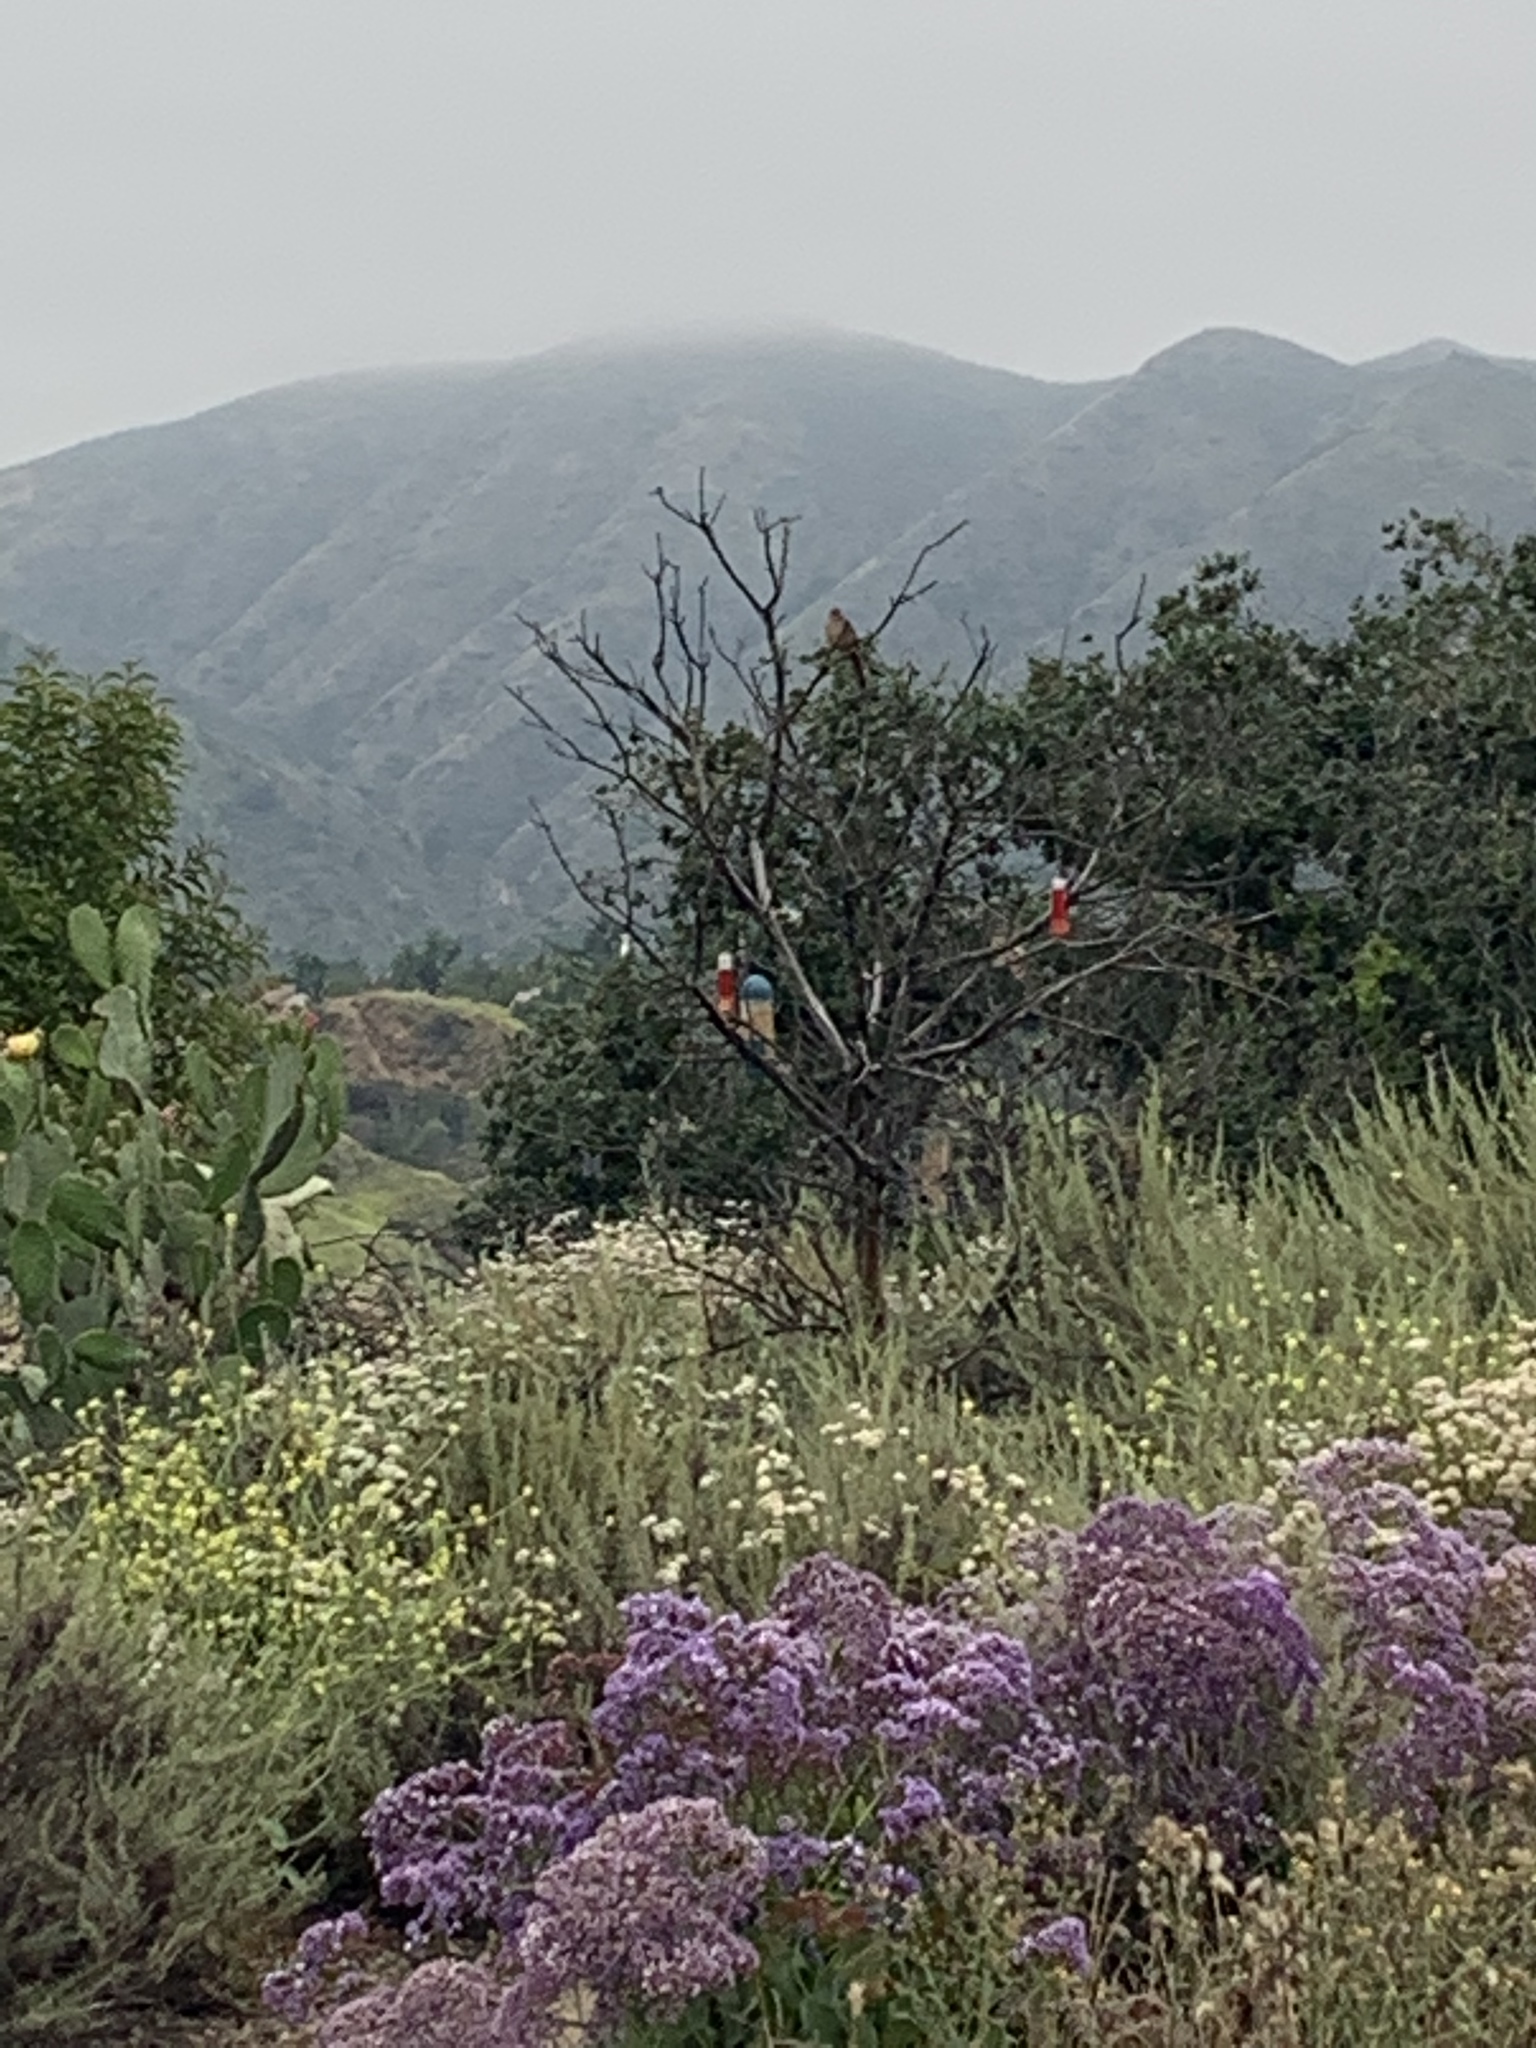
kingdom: Animalia
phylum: Chordata
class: Aves
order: Passeriformes
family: Mimidae
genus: Toxostoma
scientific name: Toxostoma redivivum
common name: California thrasher
